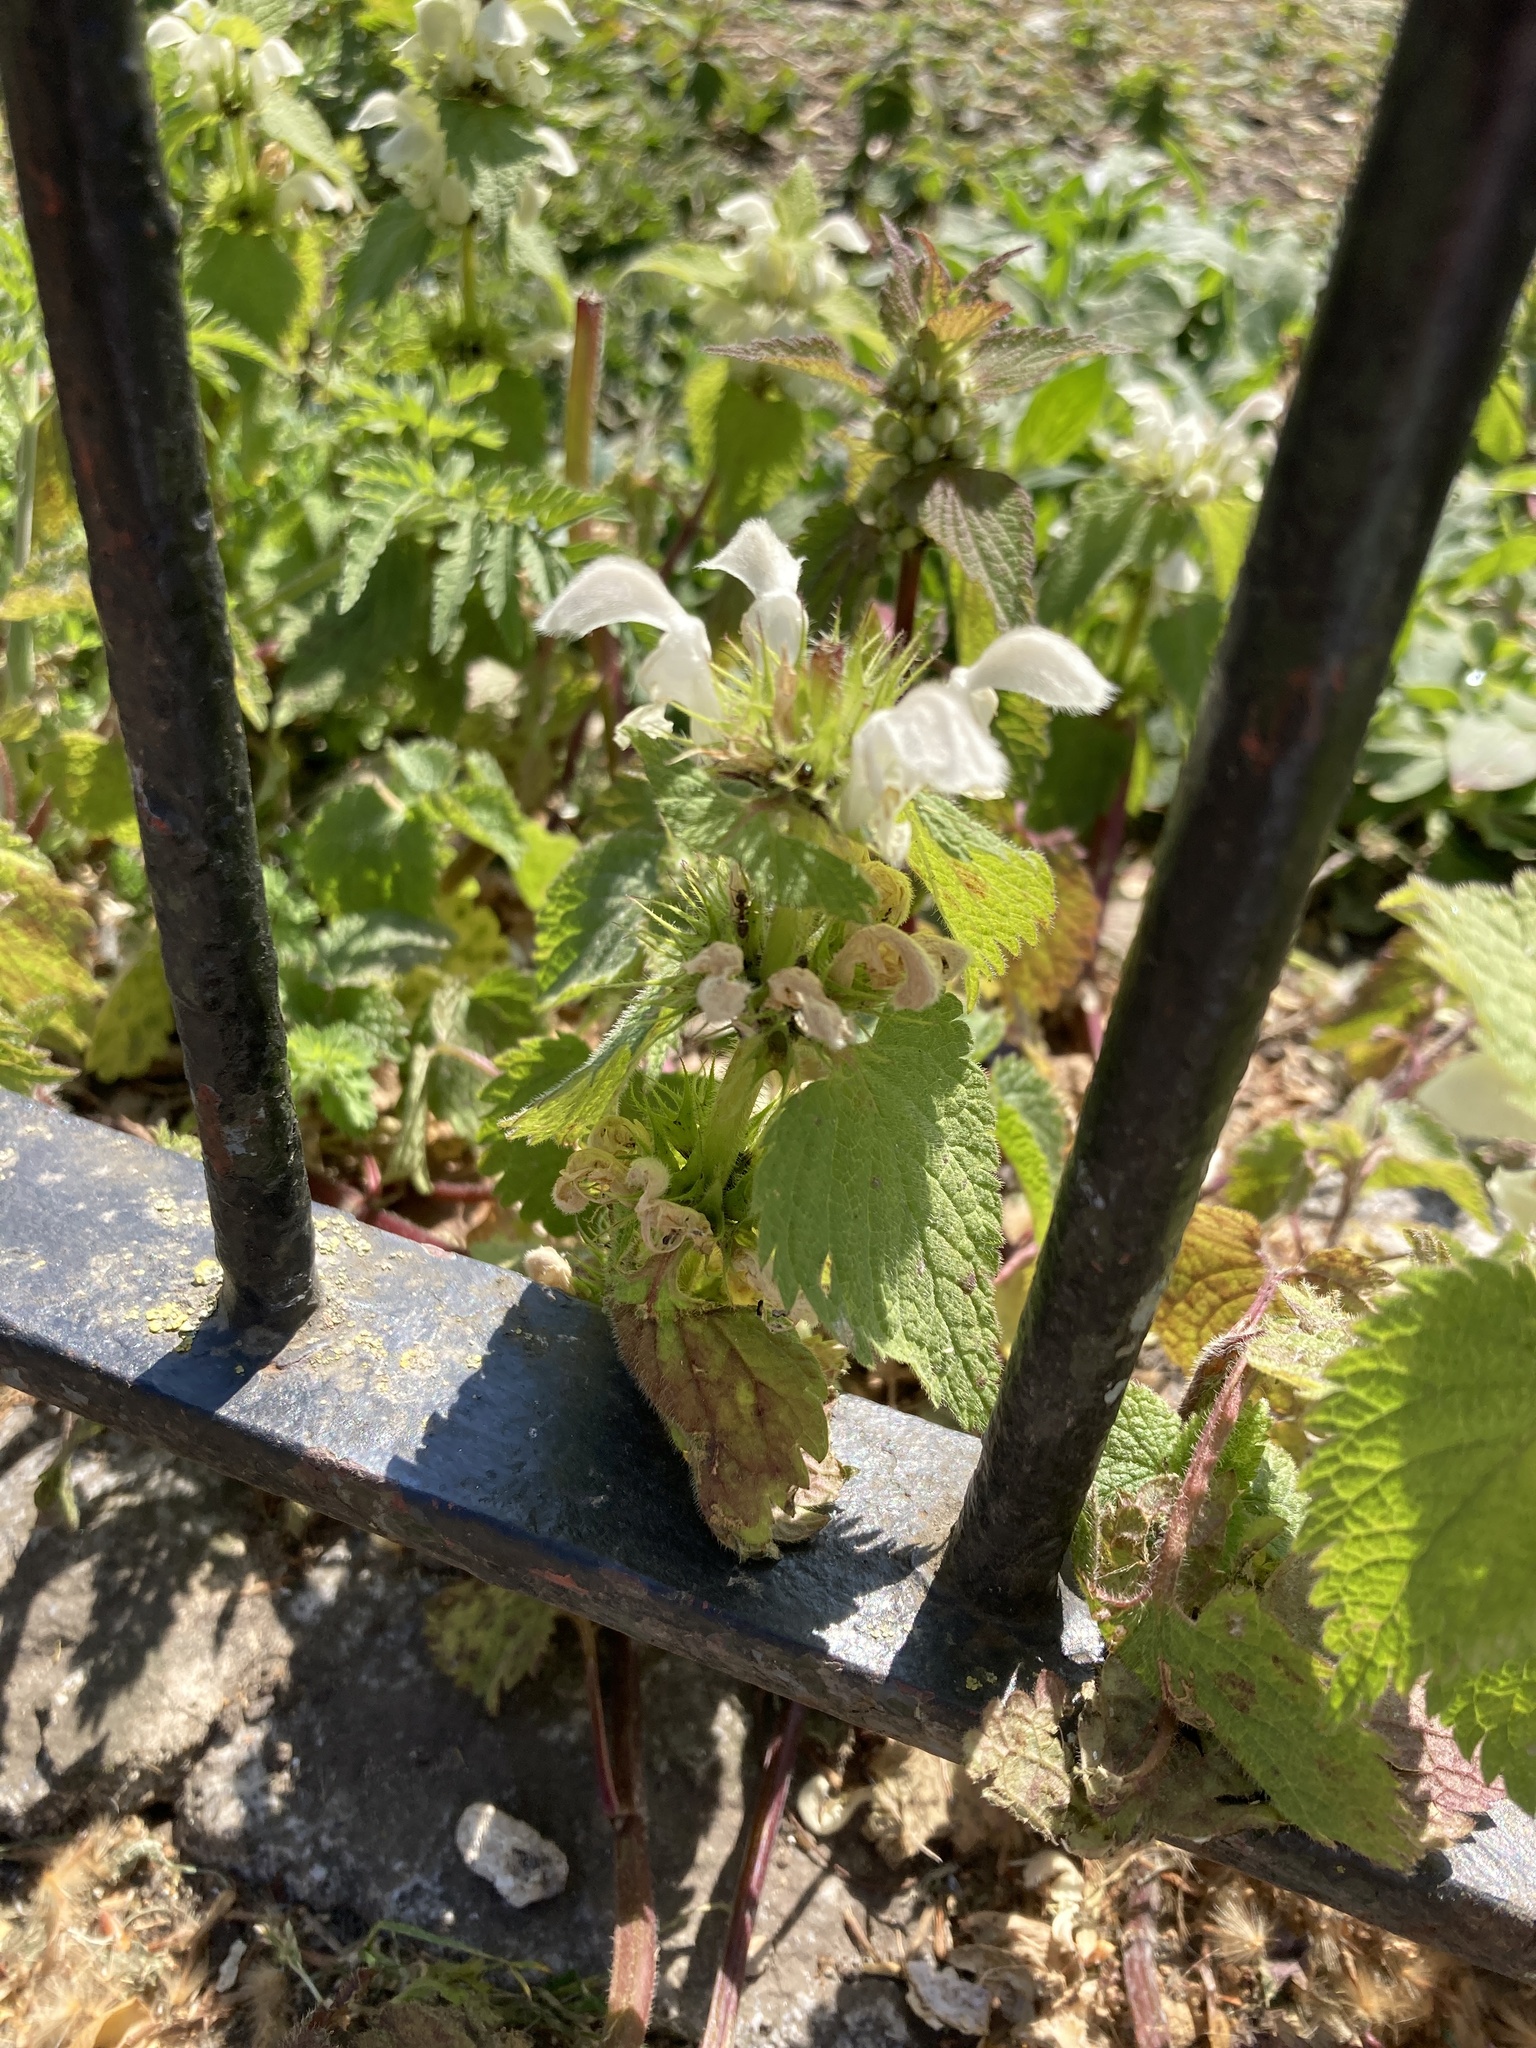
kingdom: Plantae
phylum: Tracheophyta
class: Magnoliopsida
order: Lamiales
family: Lamiaceae
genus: Lamium
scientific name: Lamium album
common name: White dead-nettle
